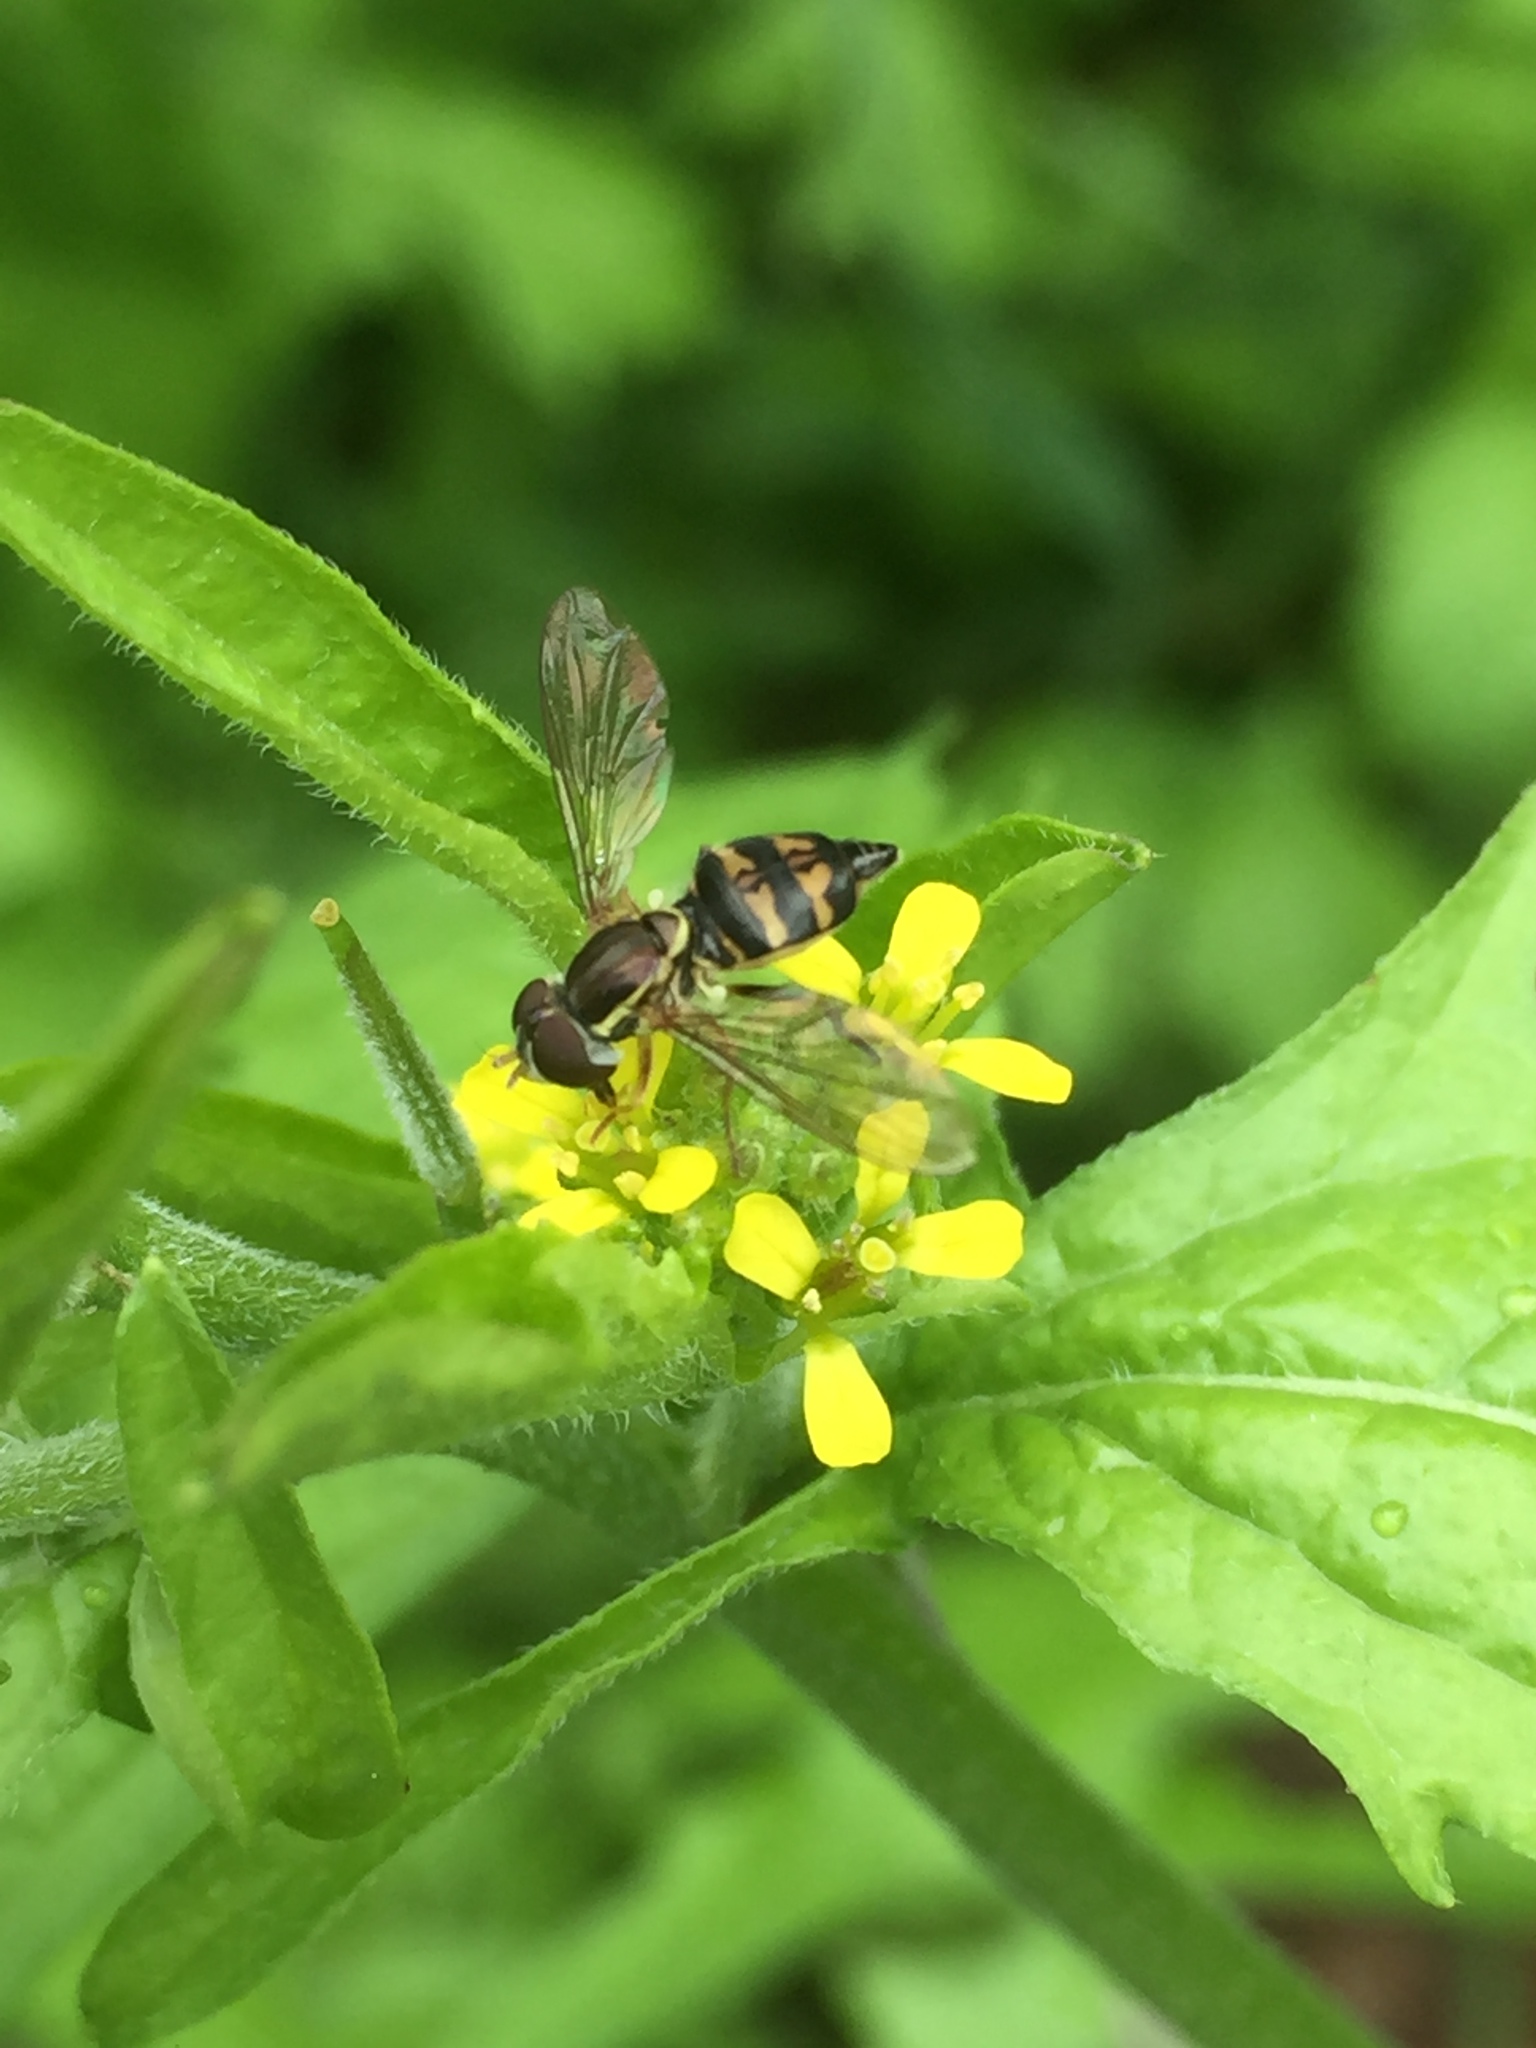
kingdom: Animalia
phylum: Arthropoda
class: Insecta
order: Diptera
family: Syrphidae
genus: Toxomerus
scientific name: Toxomerus occidentalis
